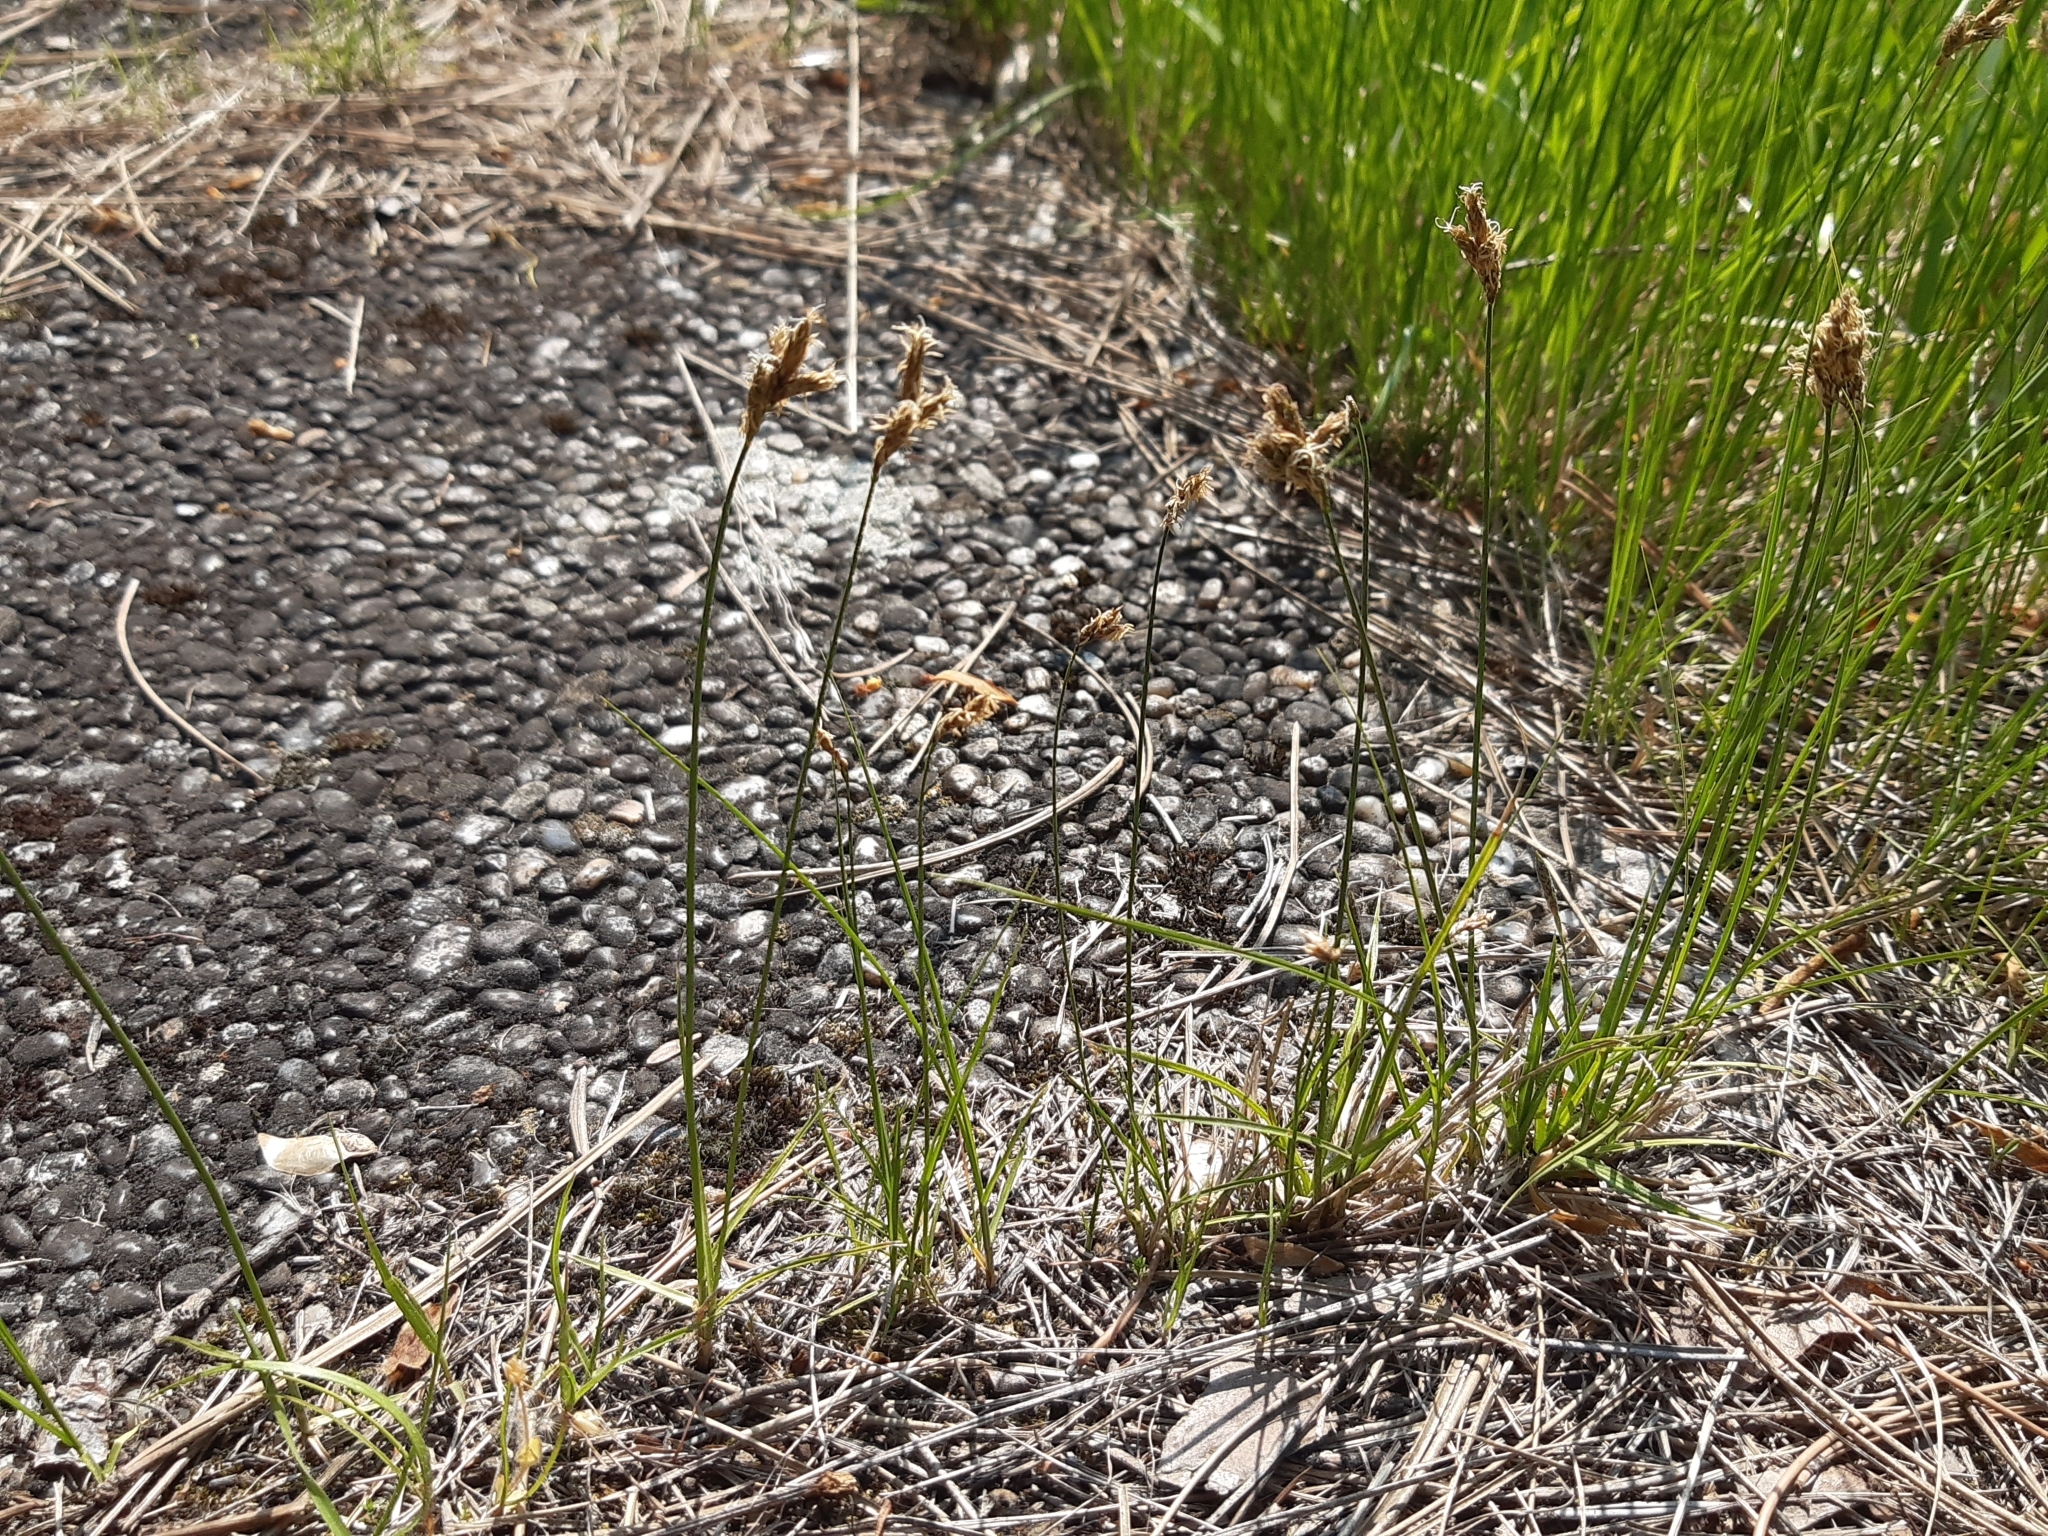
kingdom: Plantae
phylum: Tracheophyta
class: Liliopsida
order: Poales
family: Cyperaceae
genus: Carex
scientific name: Carex praecox
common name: Early sedge
